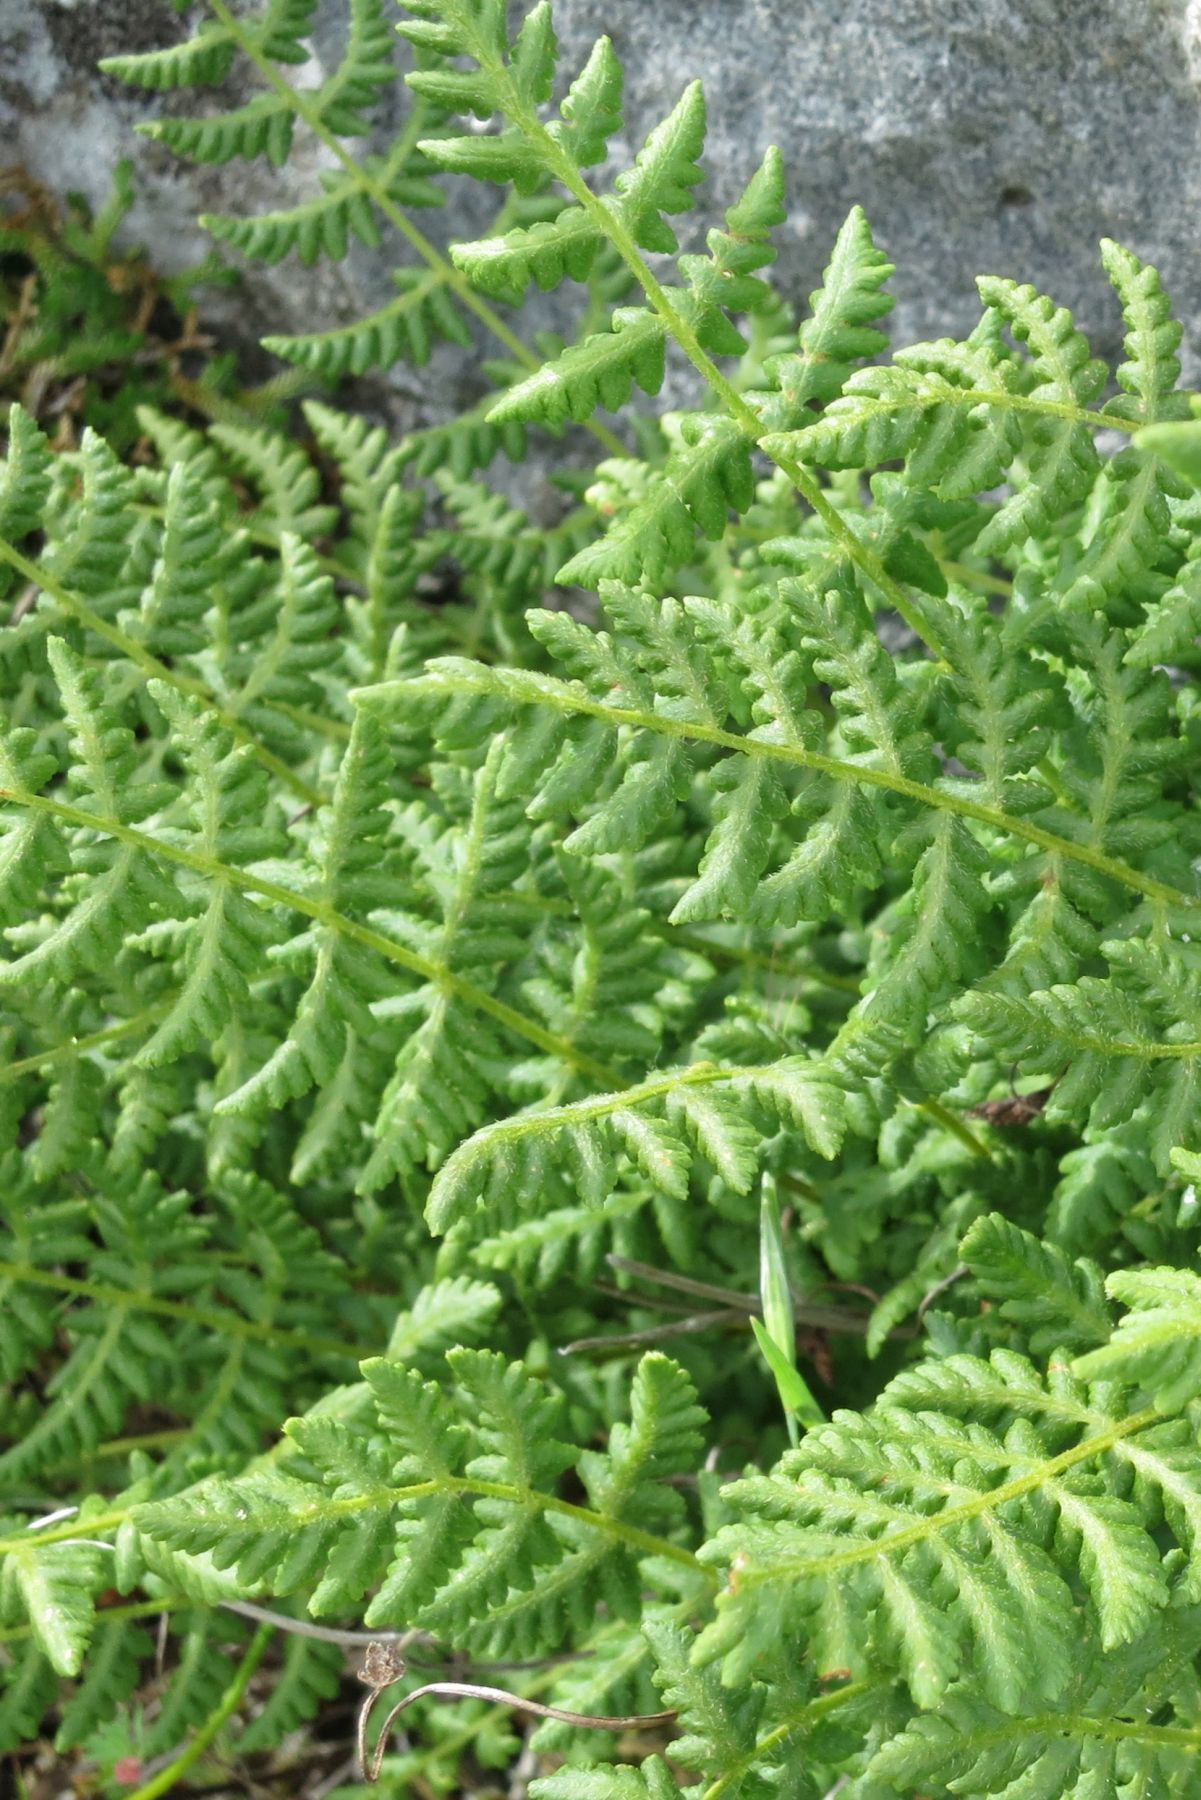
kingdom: Plantae
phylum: Tracheophyta
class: Polypodiopsida
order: Polypodiales
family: Woodsiaceae
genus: Physematium
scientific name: Physematium scopulinum
